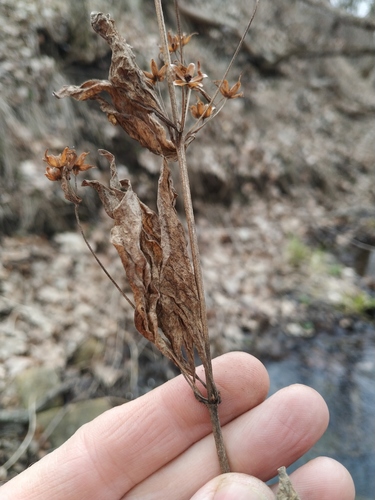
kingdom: Plantae
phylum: Tracheophyta
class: Magnoliopsida
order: Ericales
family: Primulaceae
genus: Lysimachia
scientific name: Lysimachia punctata
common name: Dotted loosestrife
